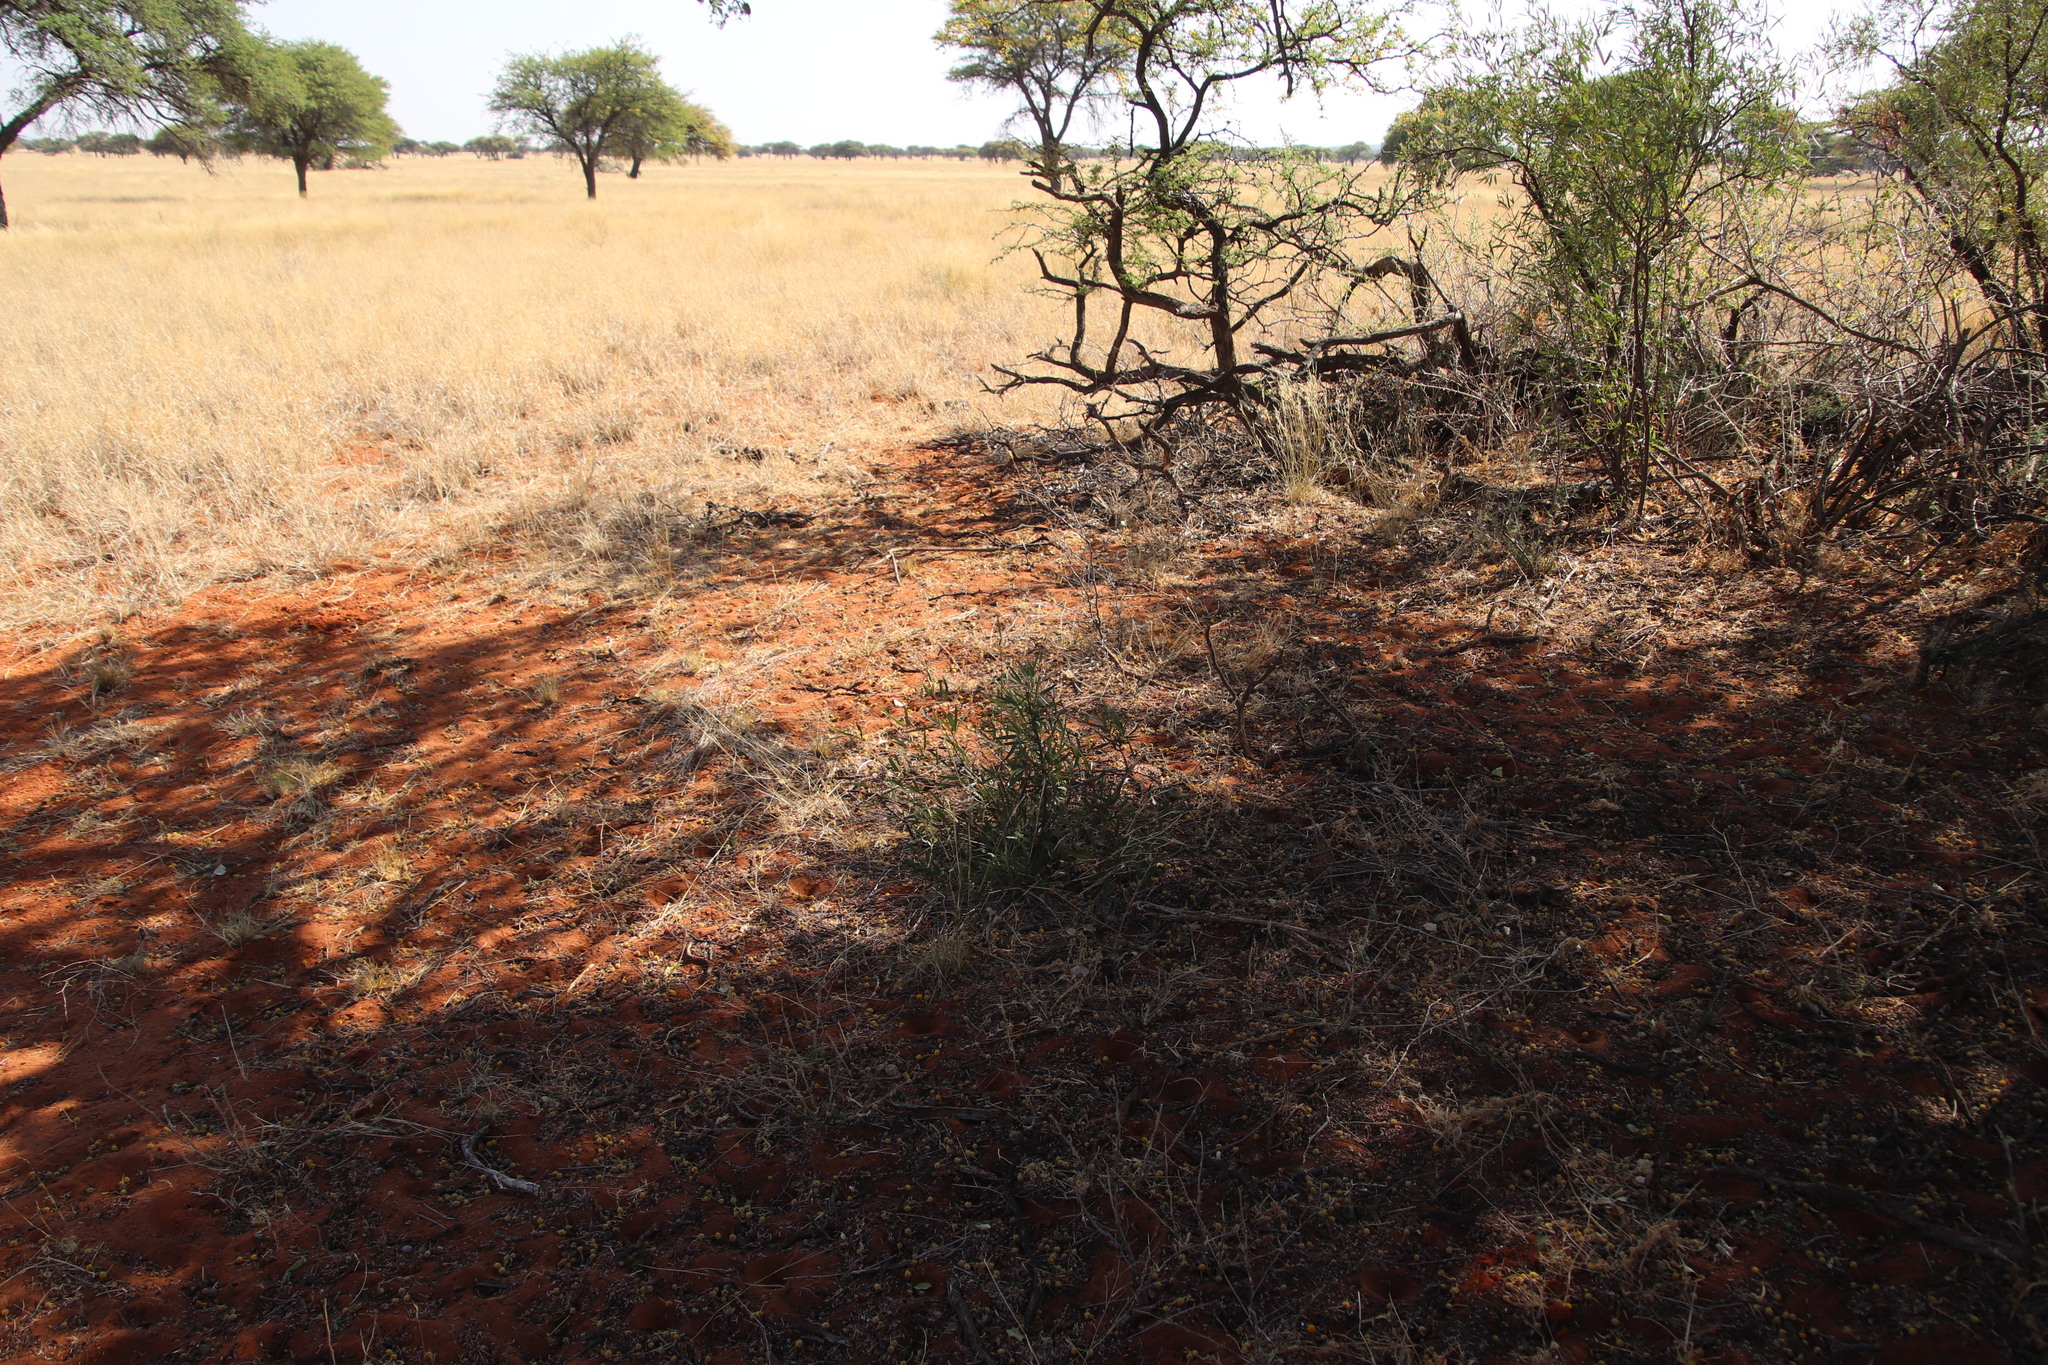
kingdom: Plantae
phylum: Tracheophyta
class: Magnoliopsida
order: Sapindales
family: Anacardiaceae
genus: Searsia
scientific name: Searsia lancea
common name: Cashew
